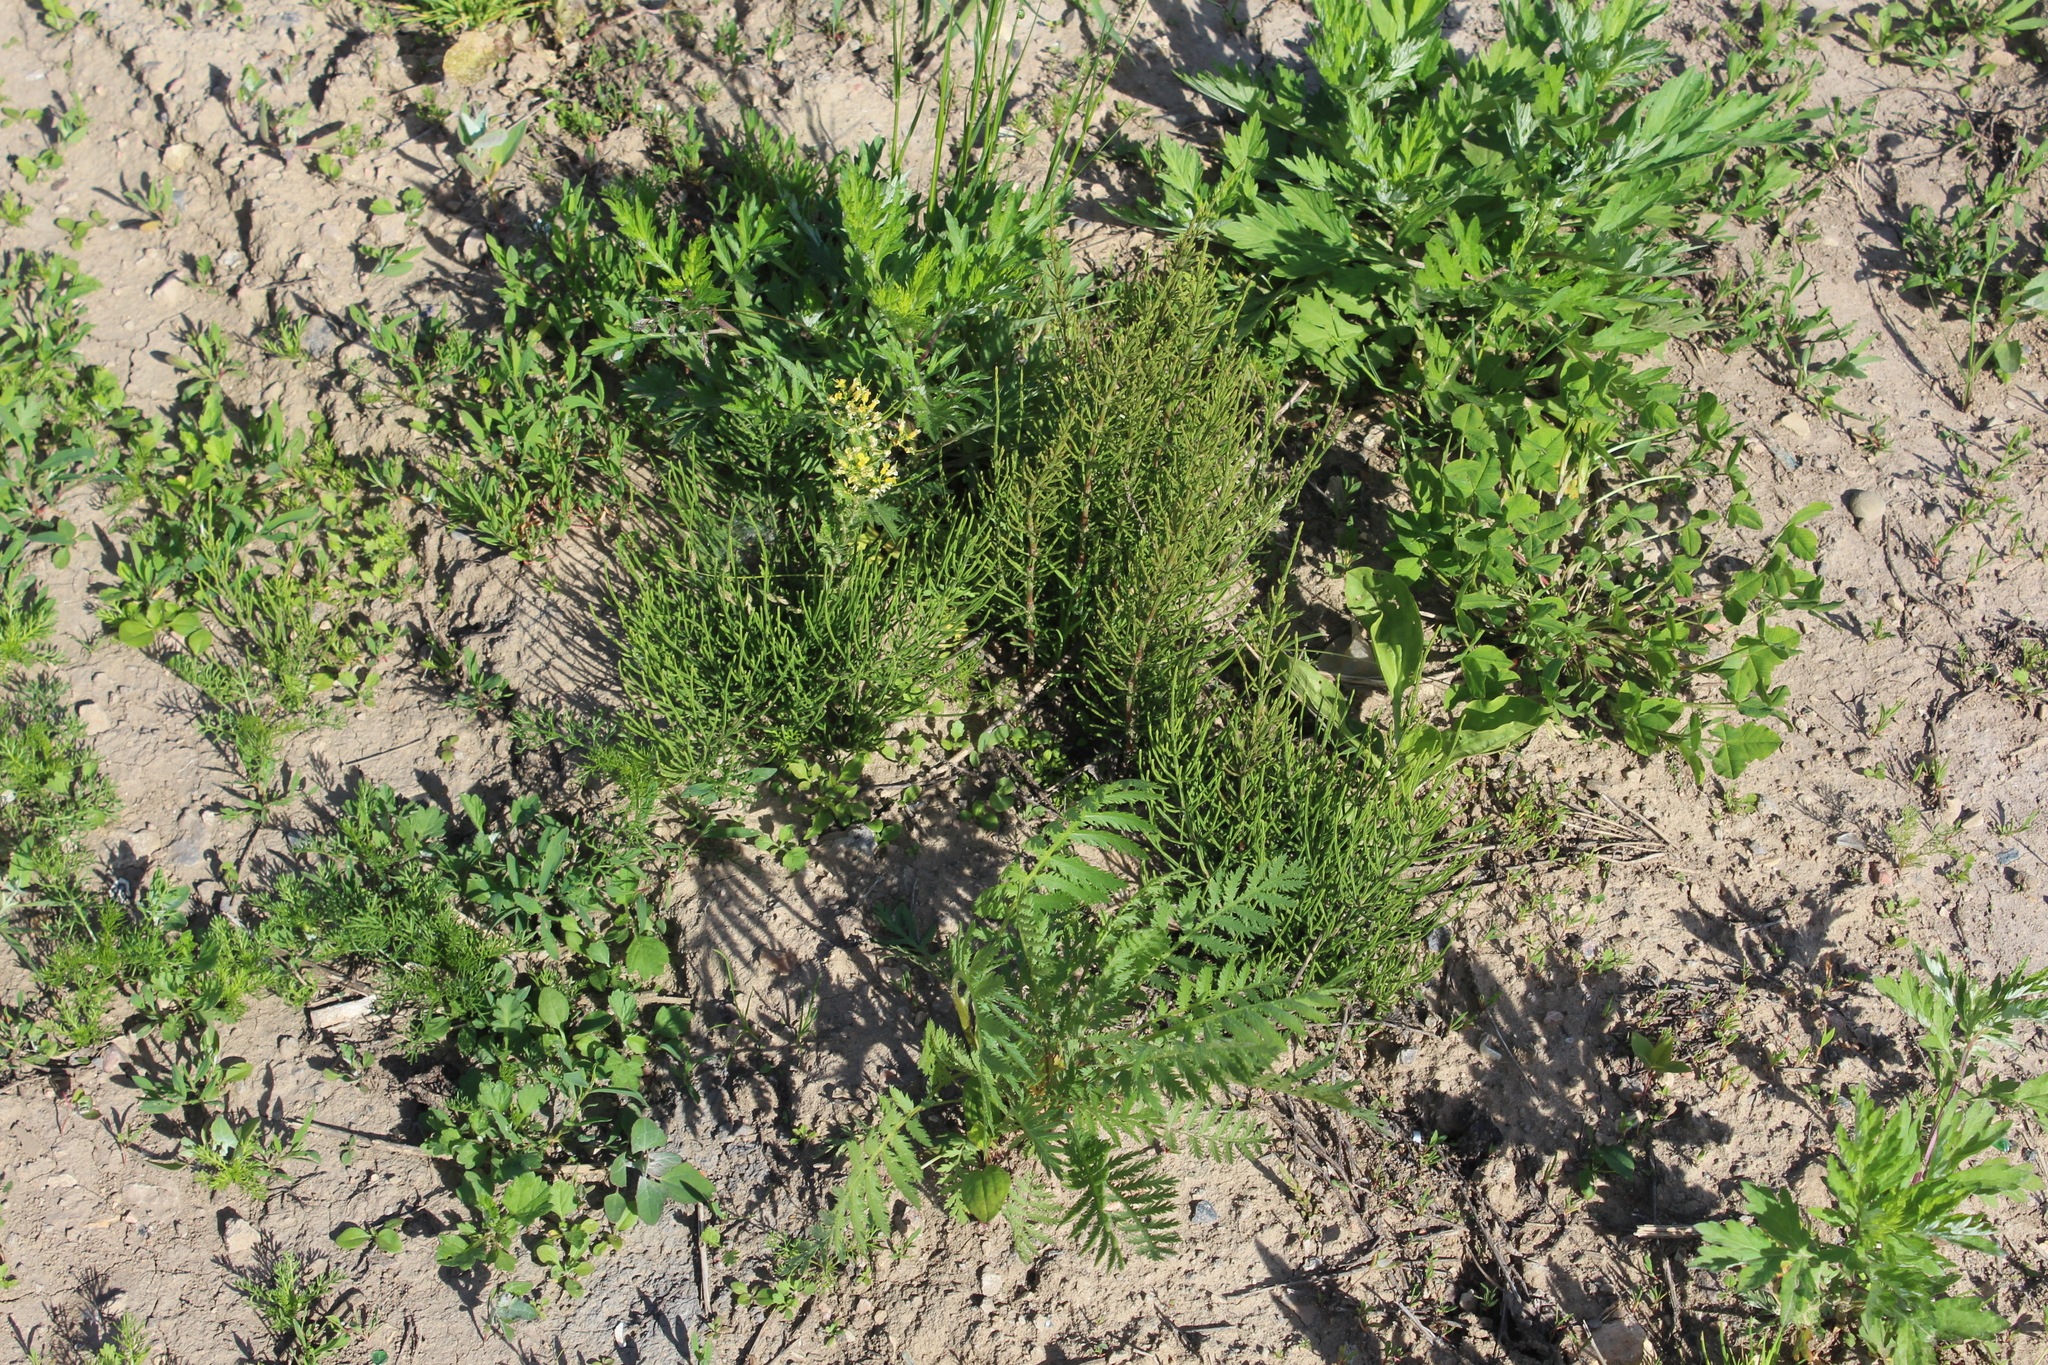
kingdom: Plantae
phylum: Tracheophyta
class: Polypodiopsida
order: Equisetales
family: Equisetaceae
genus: Equisetum
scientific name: Equisetum arvense
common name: Field horsetail
